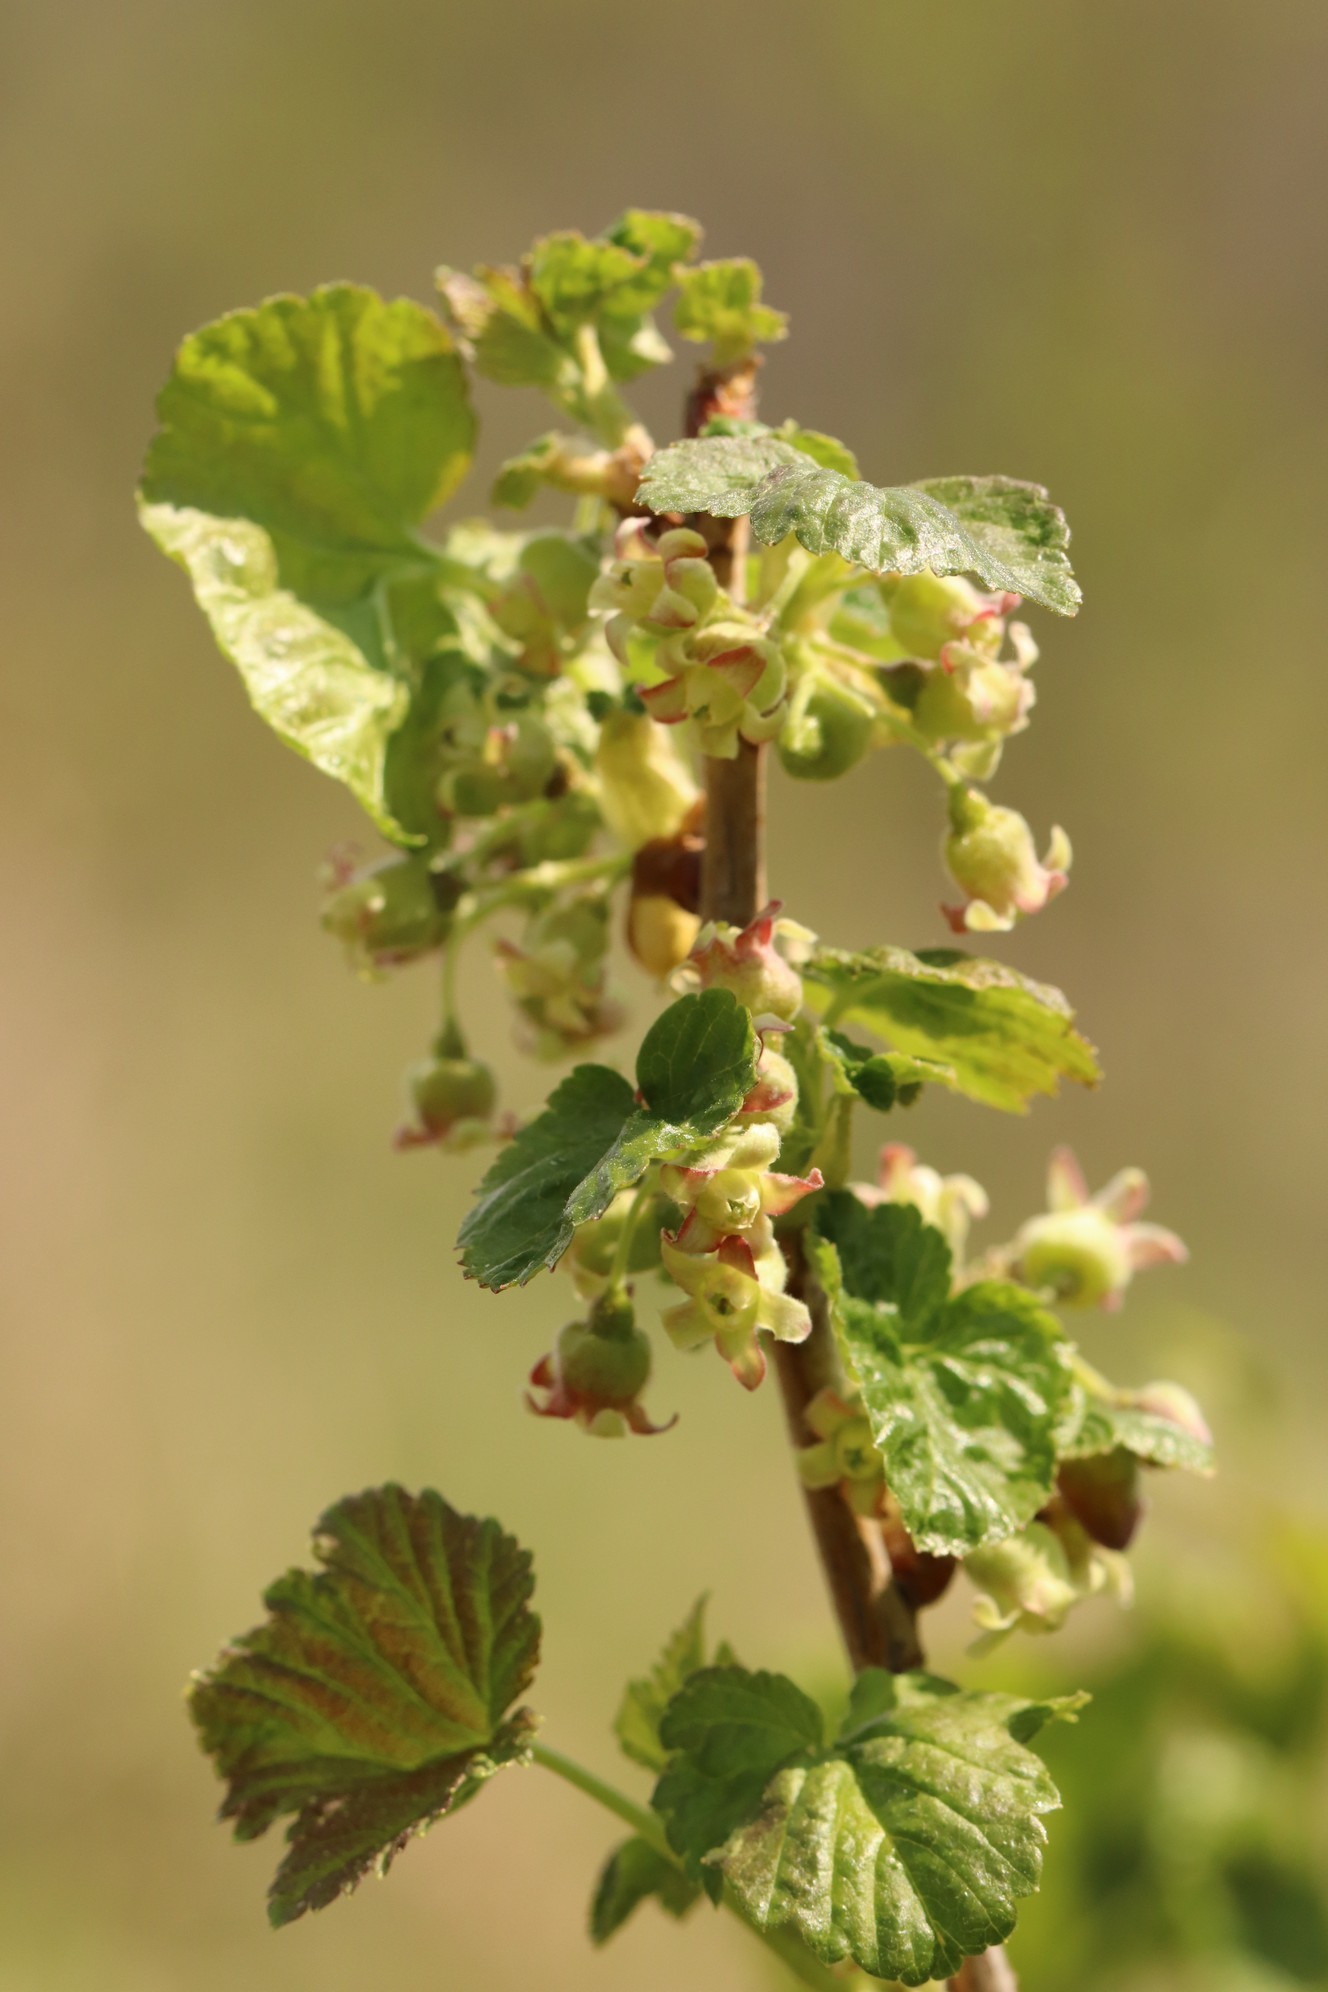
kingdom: Plantae
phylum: Tracheophyta
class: Magnoliopsida
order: Saxifragales
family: Grossulariaceae
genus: Ribes
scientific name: Ribes nigrum
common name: Black currant
